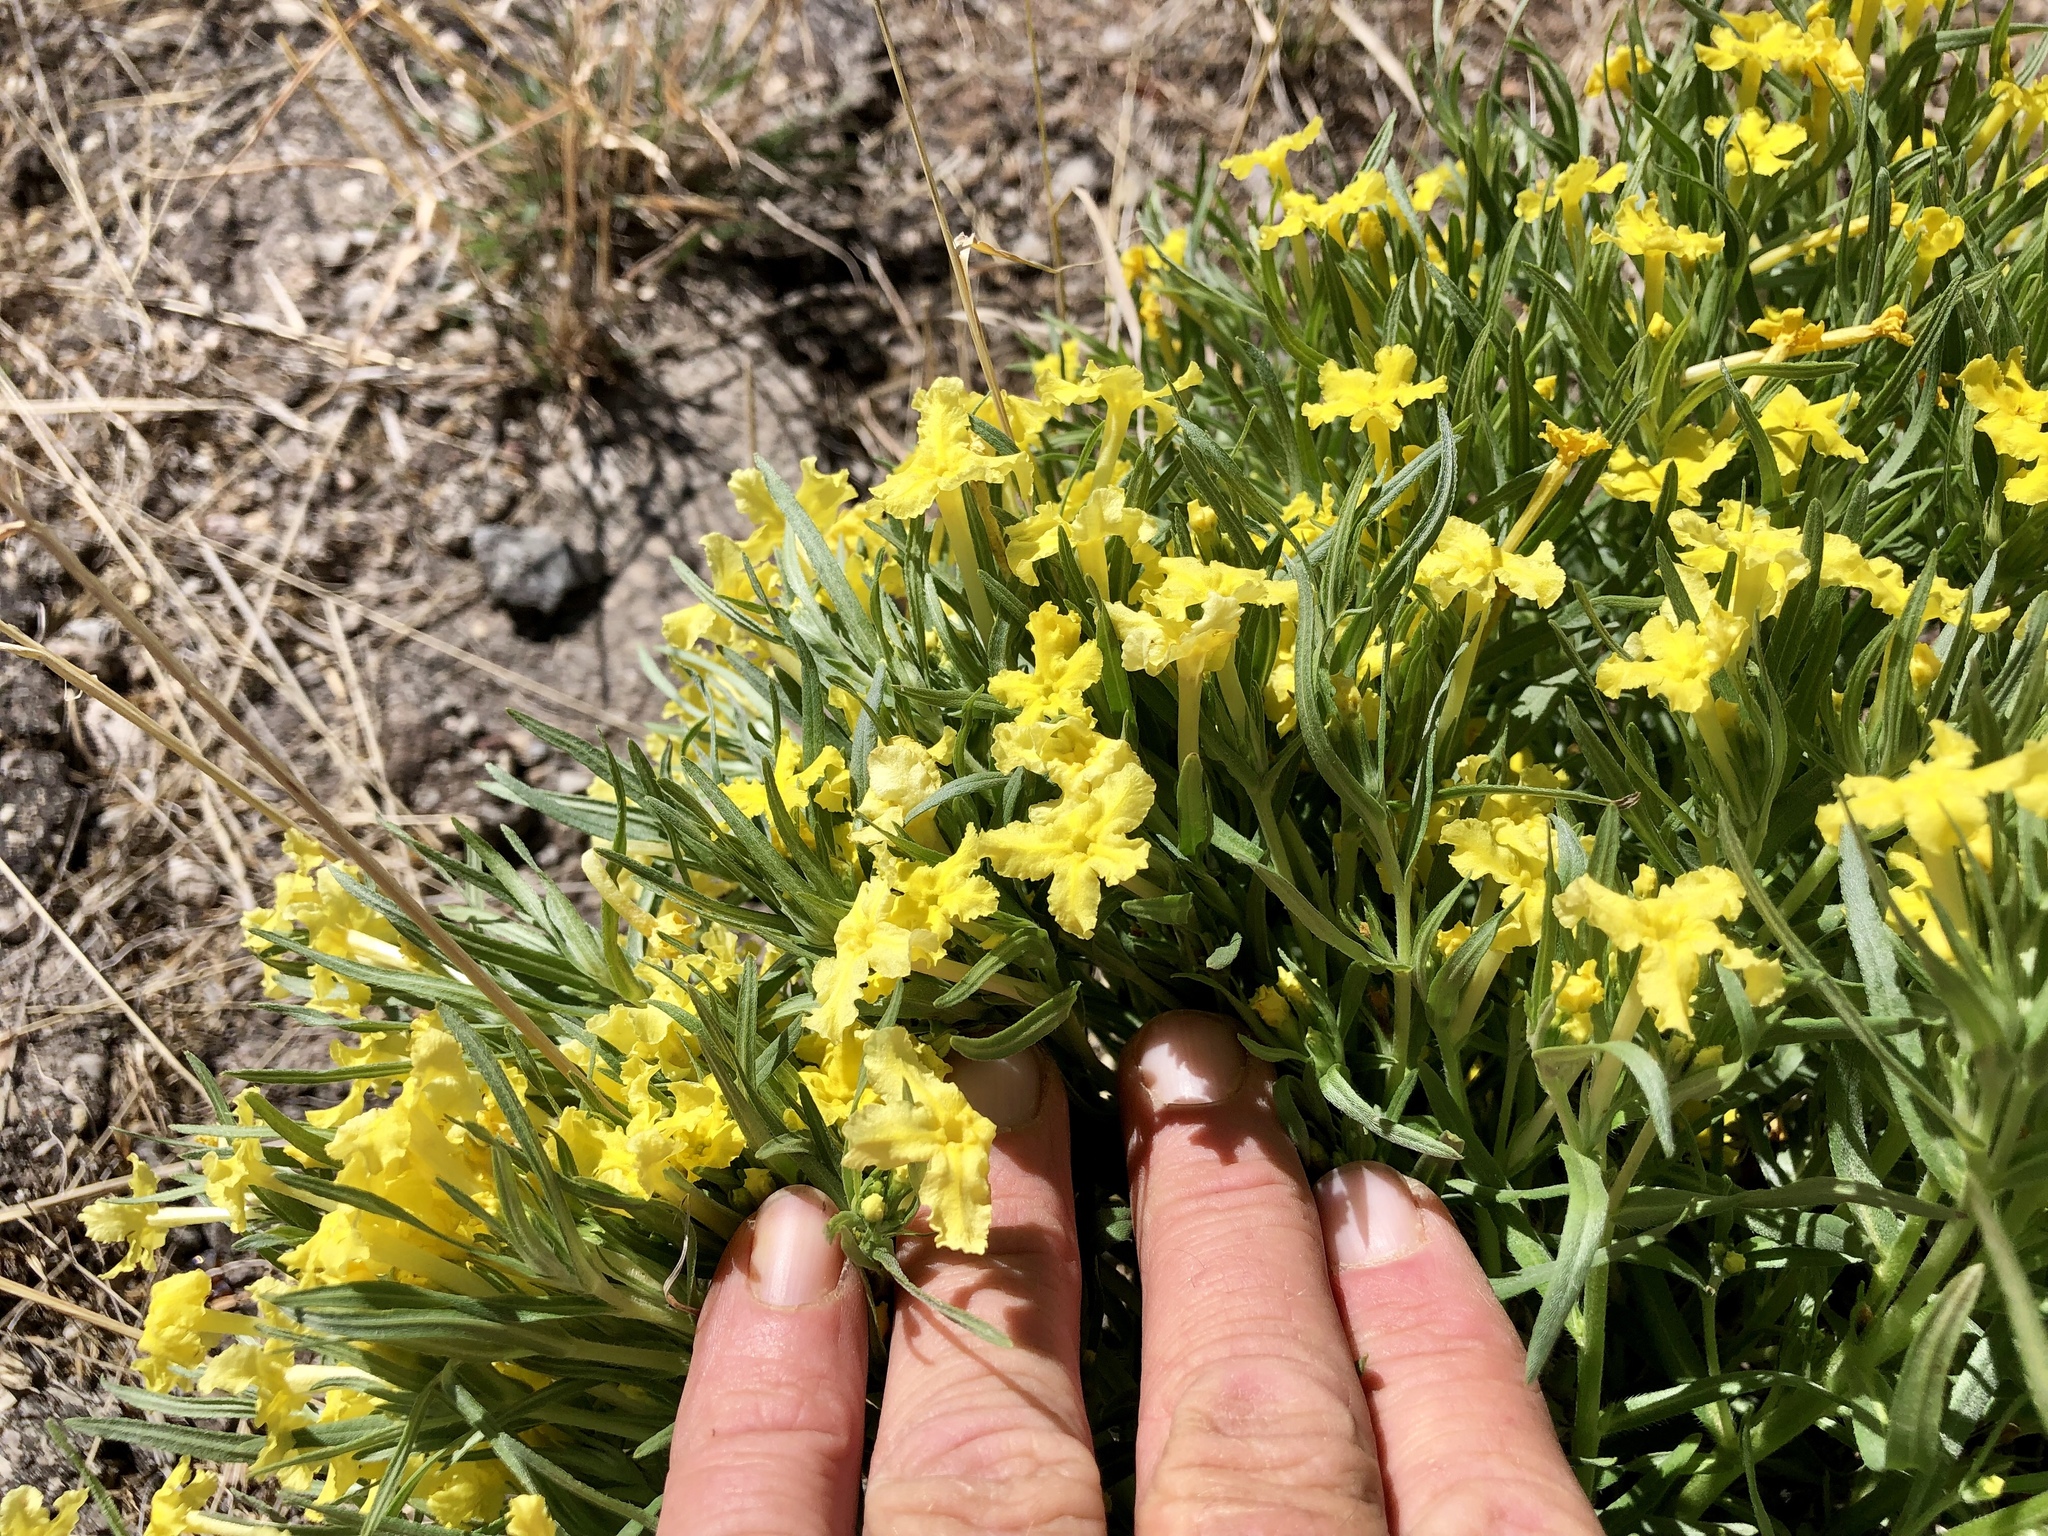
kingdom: Plantae
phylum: Tracheophyta
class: Magnoliopsida
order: Boraginales
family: Boraginaceae
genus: Lithospermum
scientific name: Lithospermum incisum
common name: Fringed gromwell
